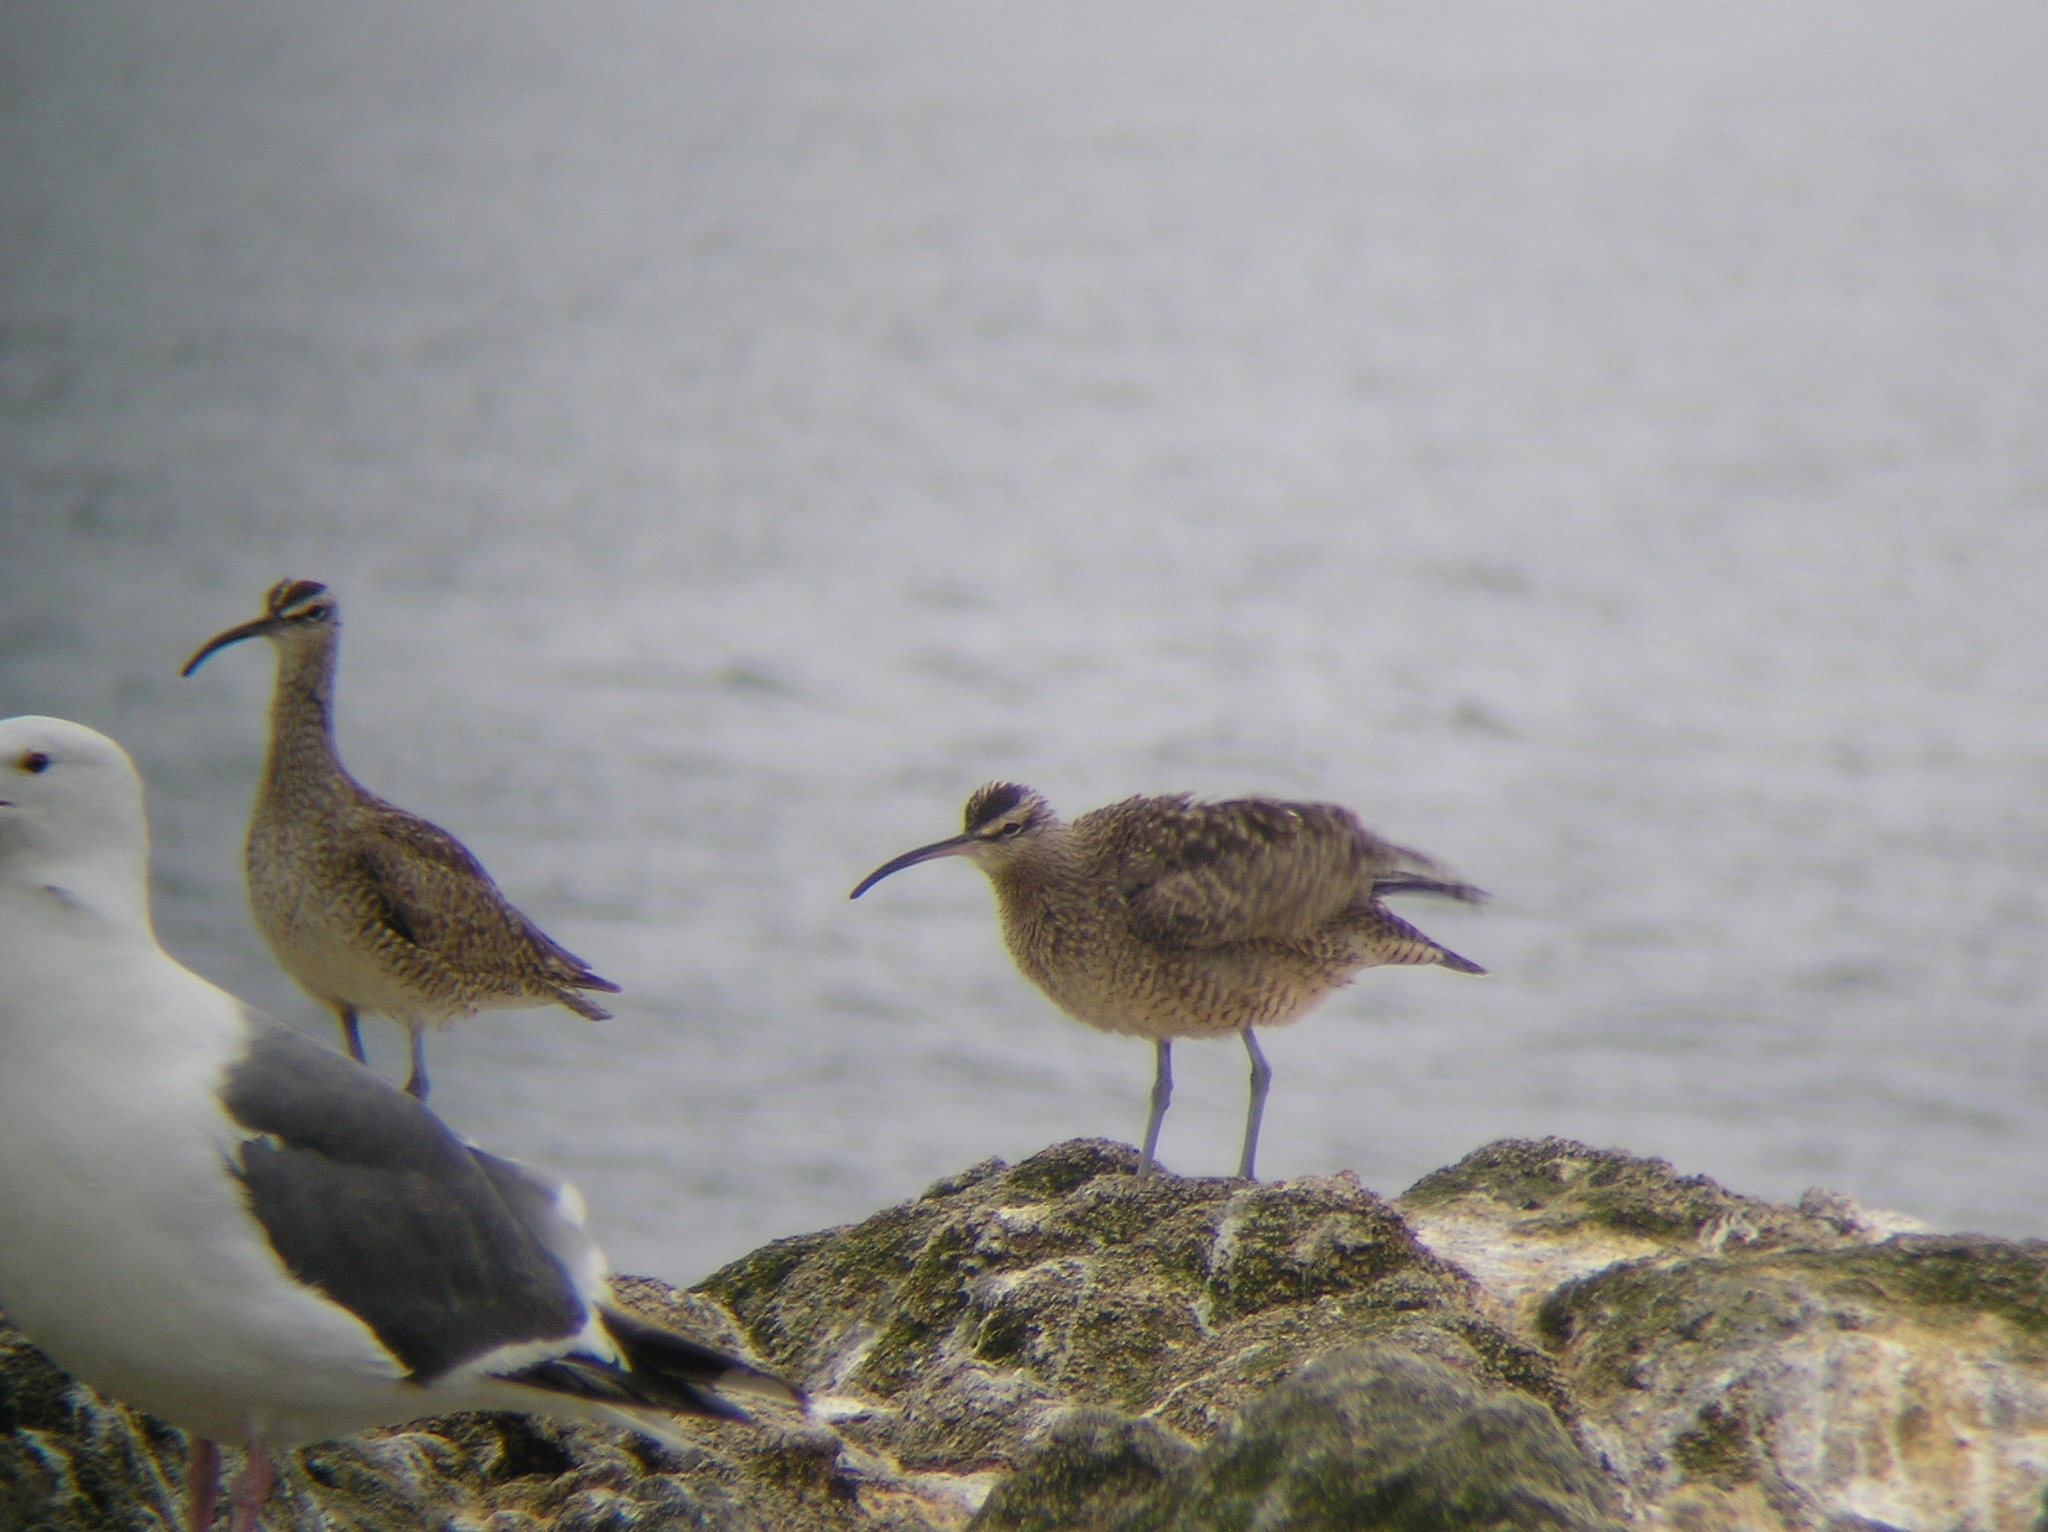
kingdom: Animalia
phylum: Chordata
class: Aves
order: Charadriiformes
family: Scolopacidae
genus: Numenius
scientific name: Numenius phaeopus
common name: Whimbrel
